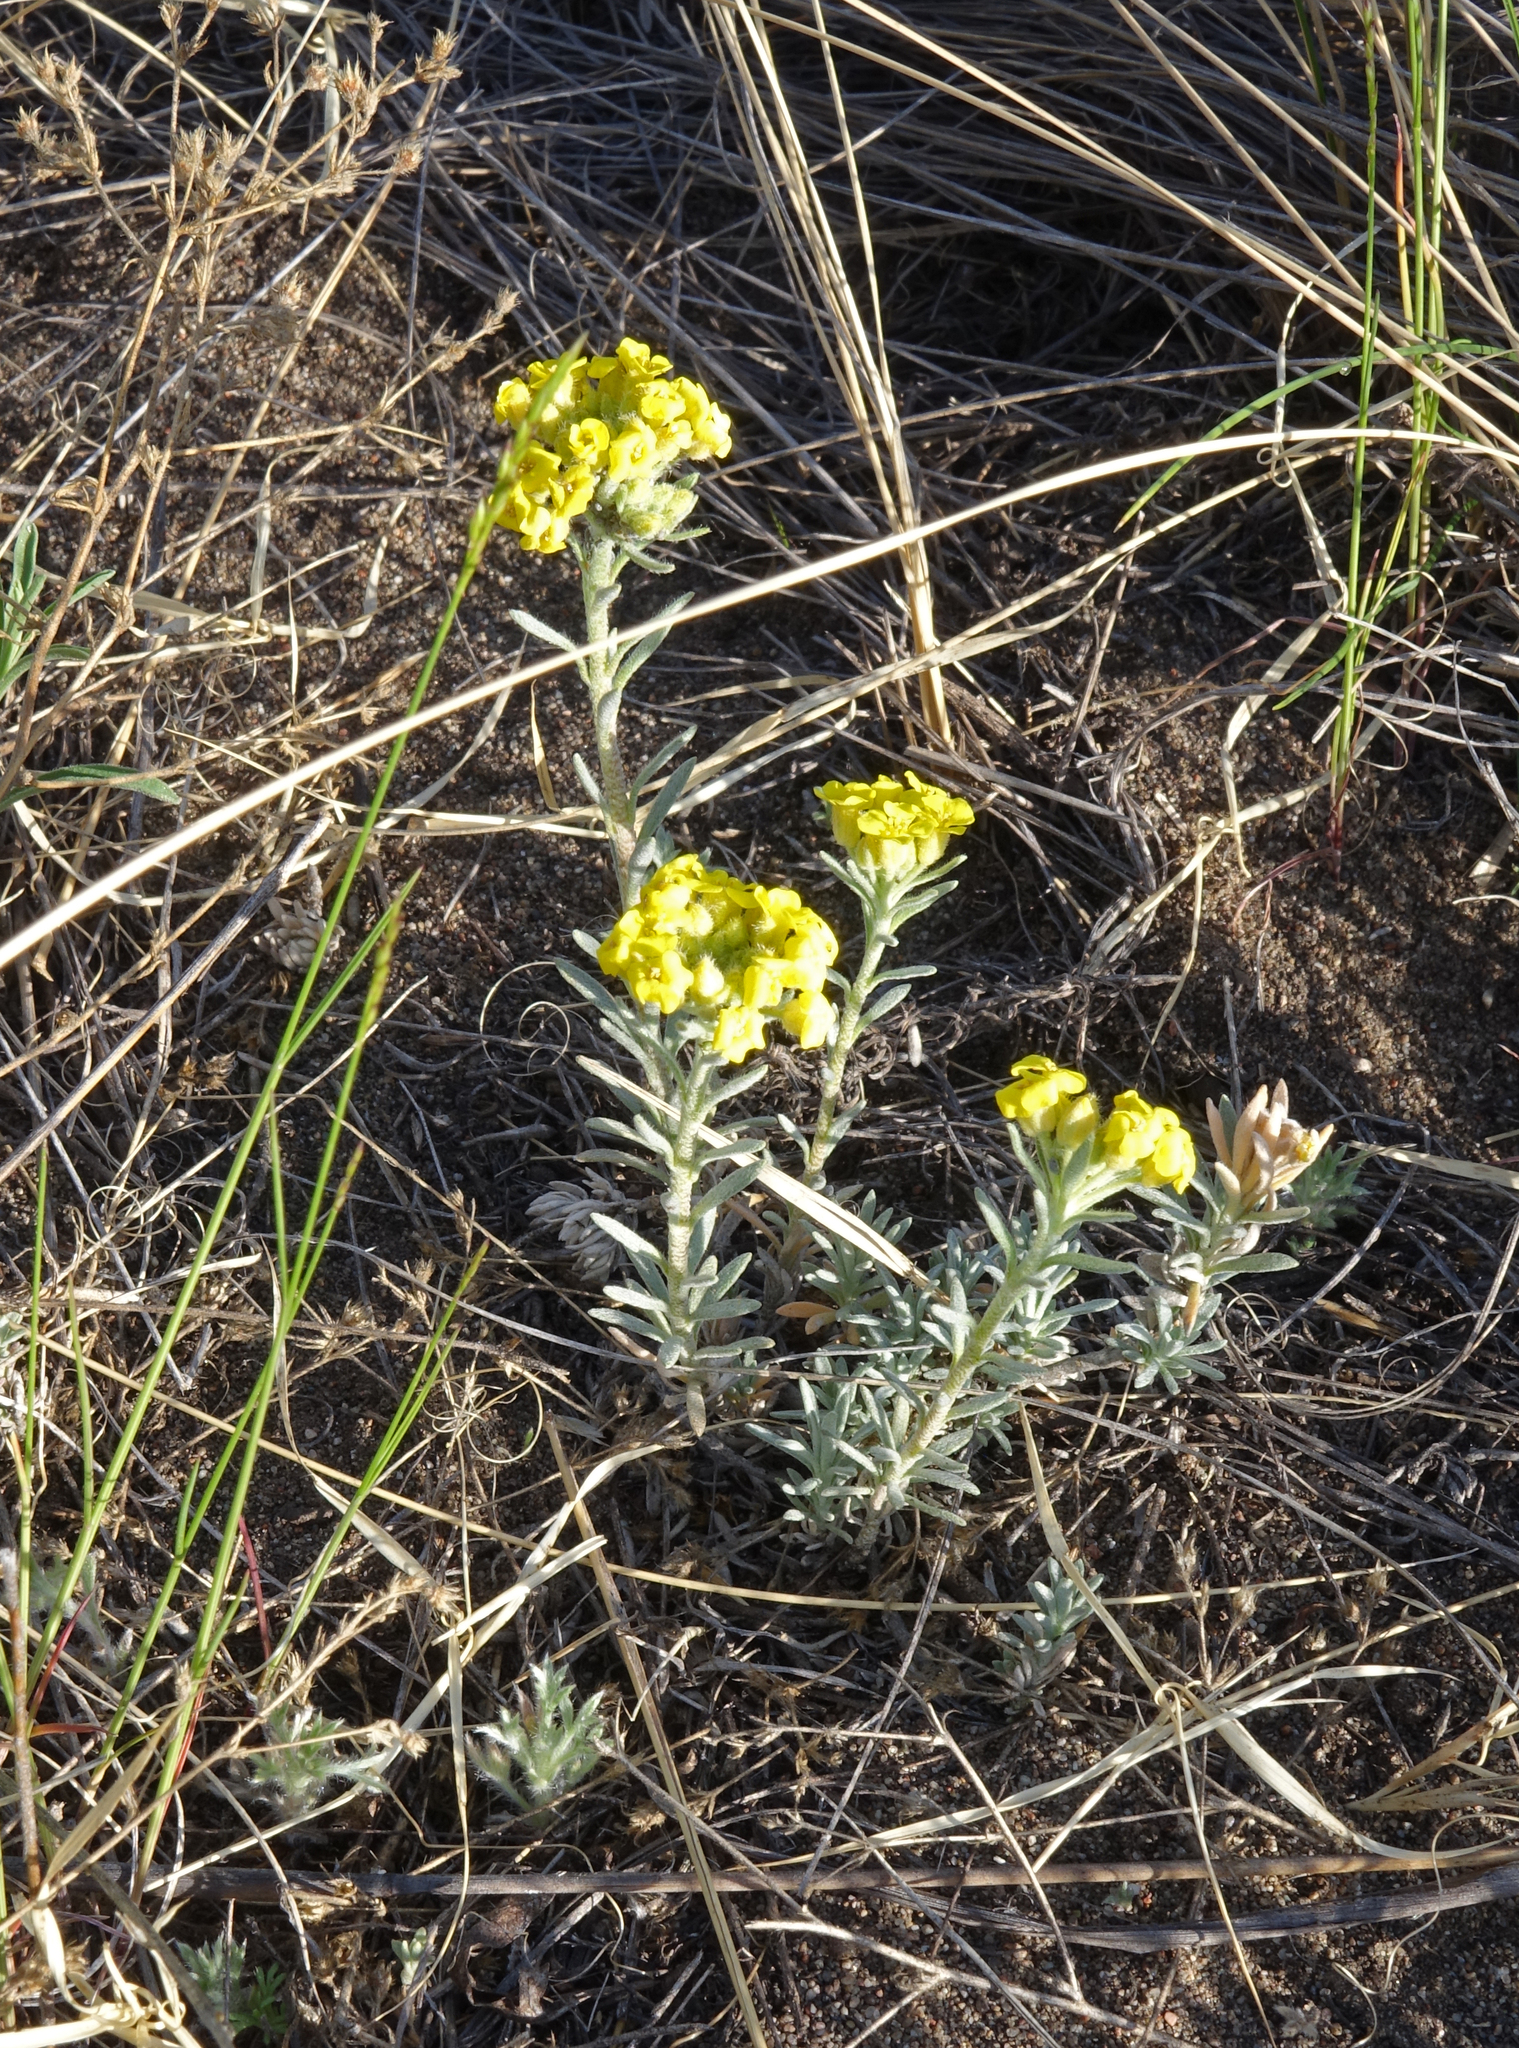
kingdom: Plantae
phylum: Tracheophyta
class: Magnoliopsida
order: Brassicales
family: Brassicaceae
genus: Alyssum
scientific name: Alyssum lenense
